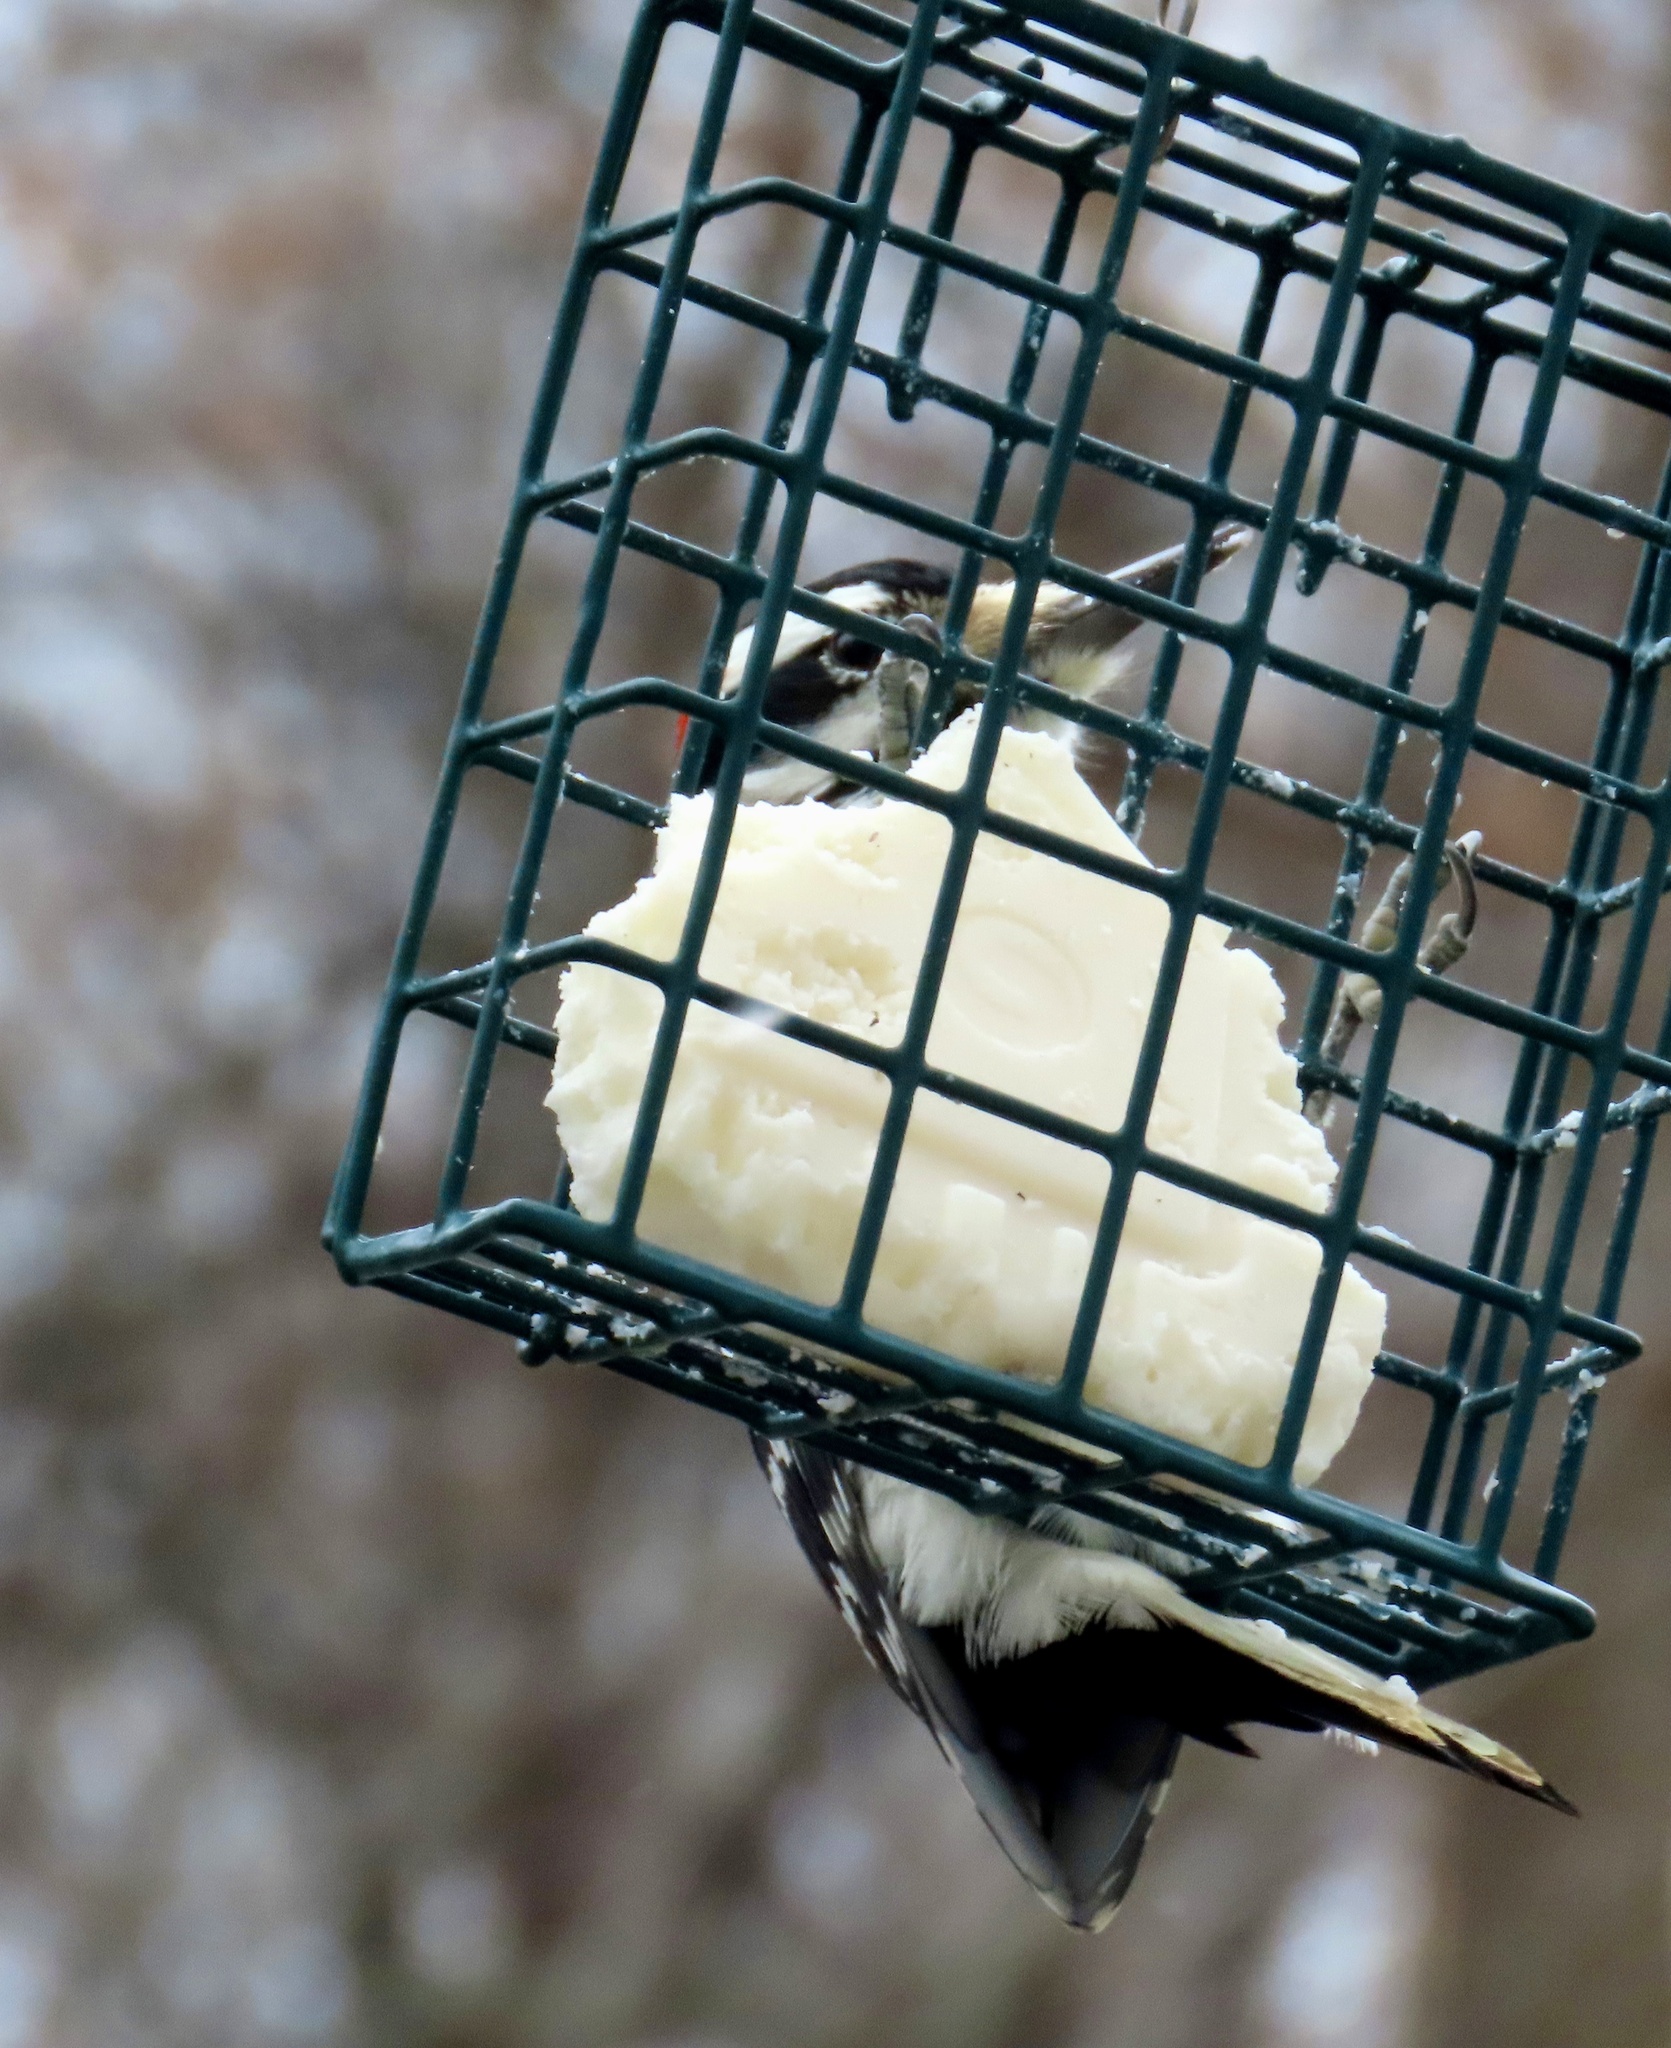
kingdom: Animalia
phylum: Chordata
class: Aves
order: Piciformes
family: Picidae
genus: Leuconotopicus
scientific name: Leuconotopicus villosus
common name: Hairy woodpecker
